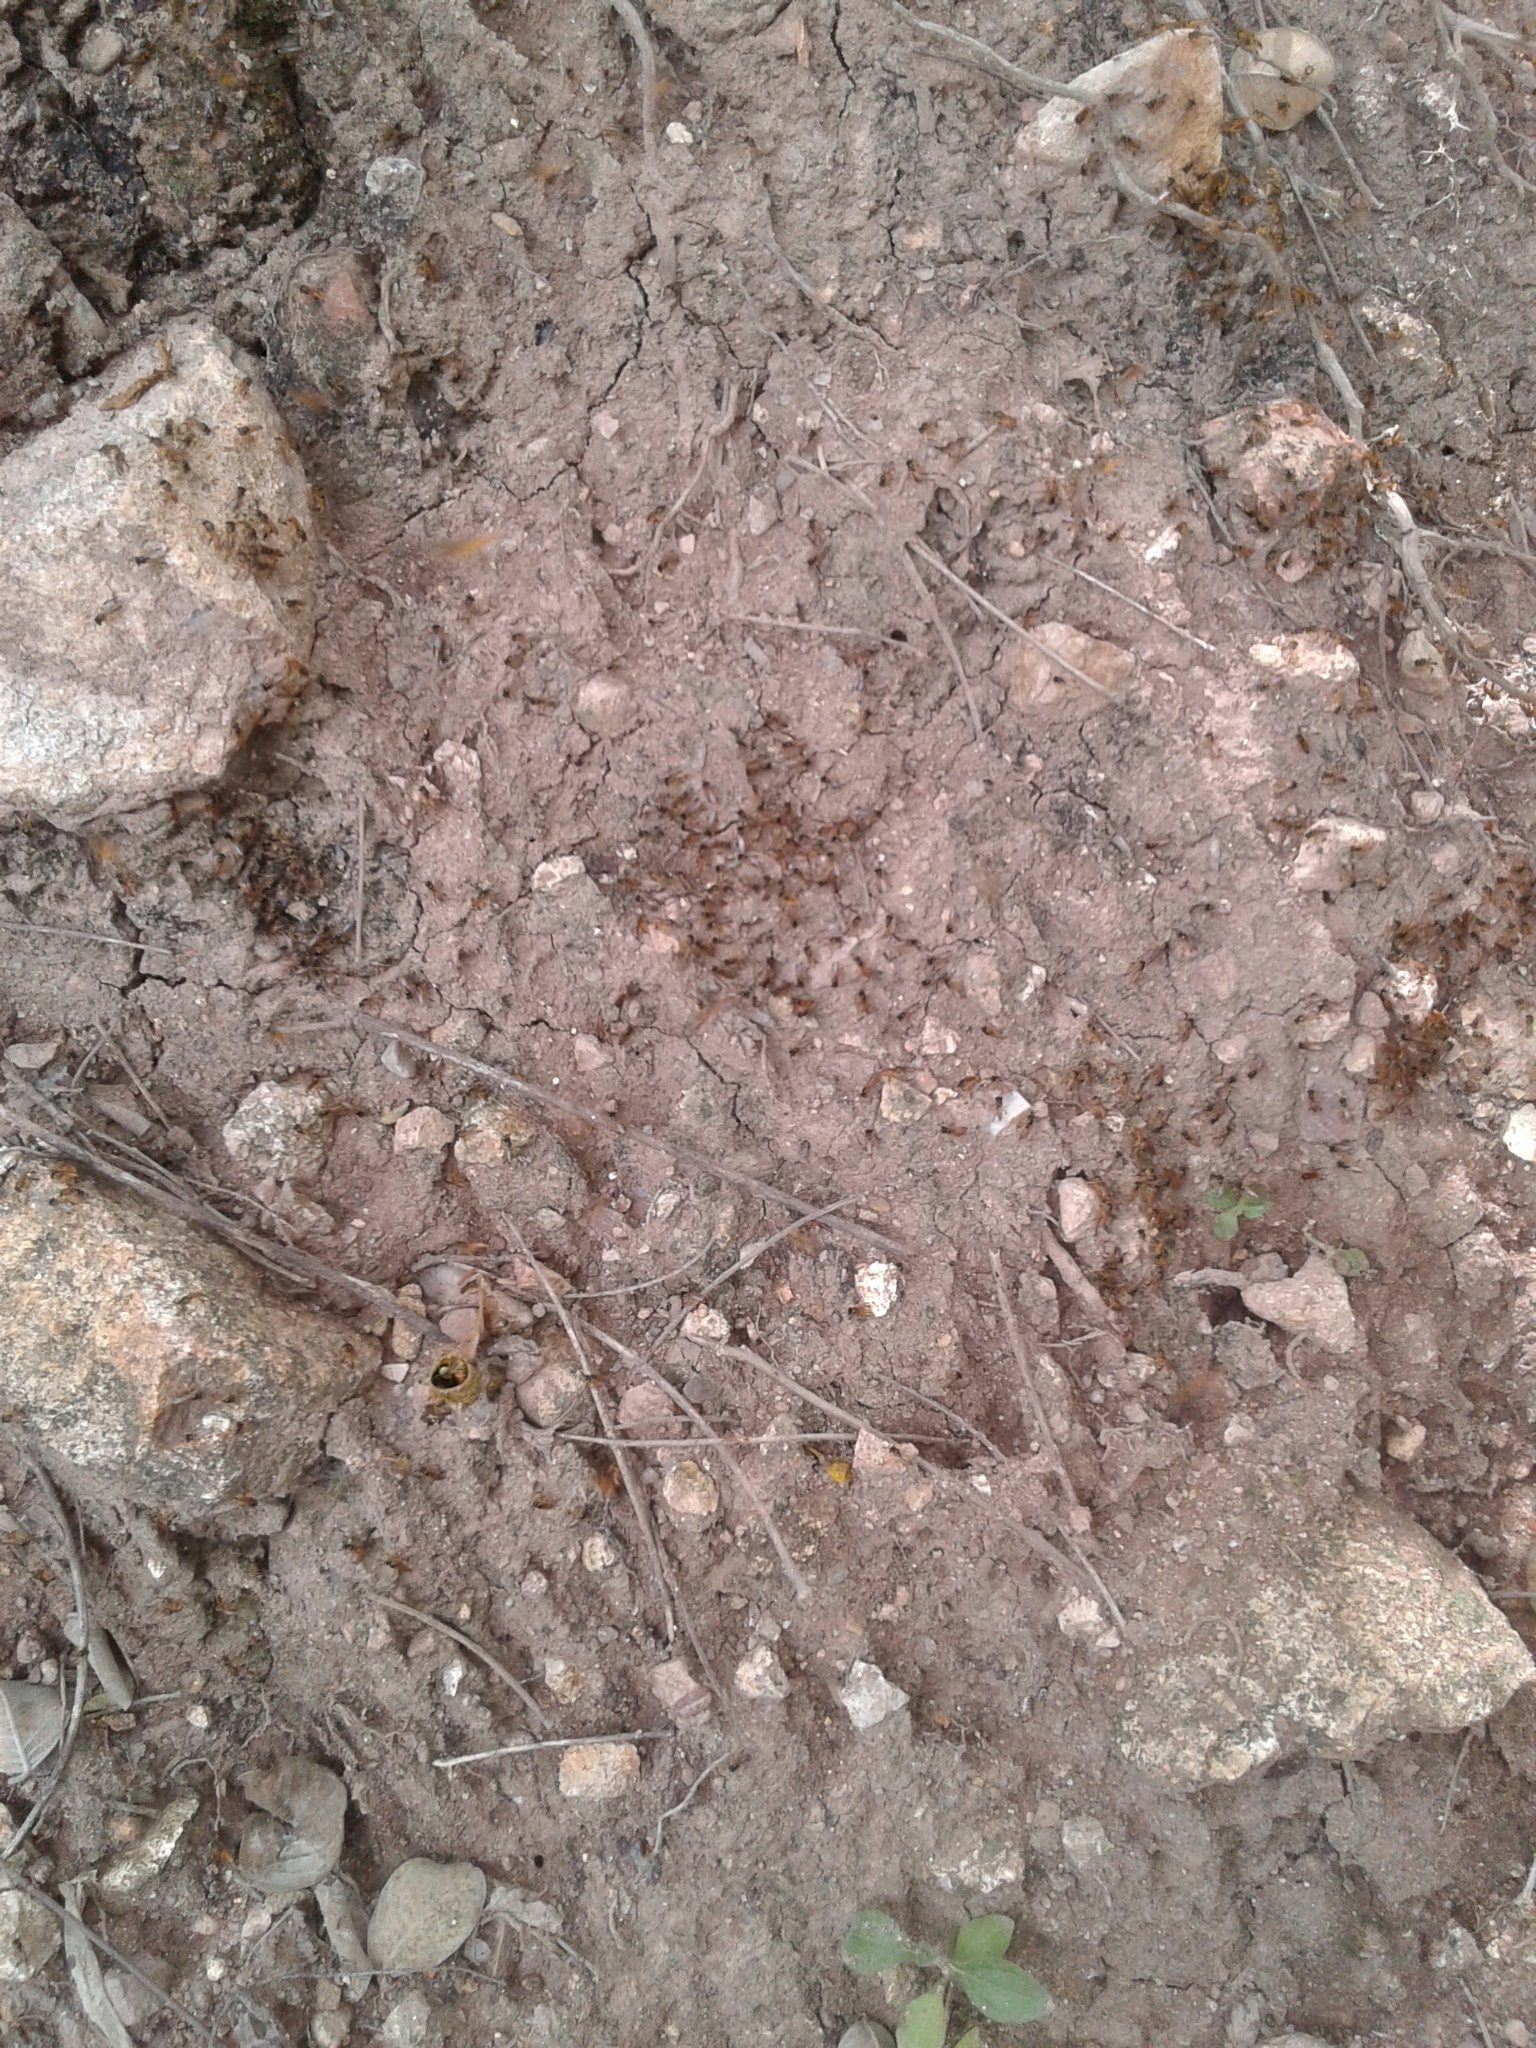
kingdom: Animalia
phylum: Arthropoda
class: Insecta
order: Hymenoptera
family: Apidae
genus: Tetragonisca
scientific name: Tetragonisca angustula
